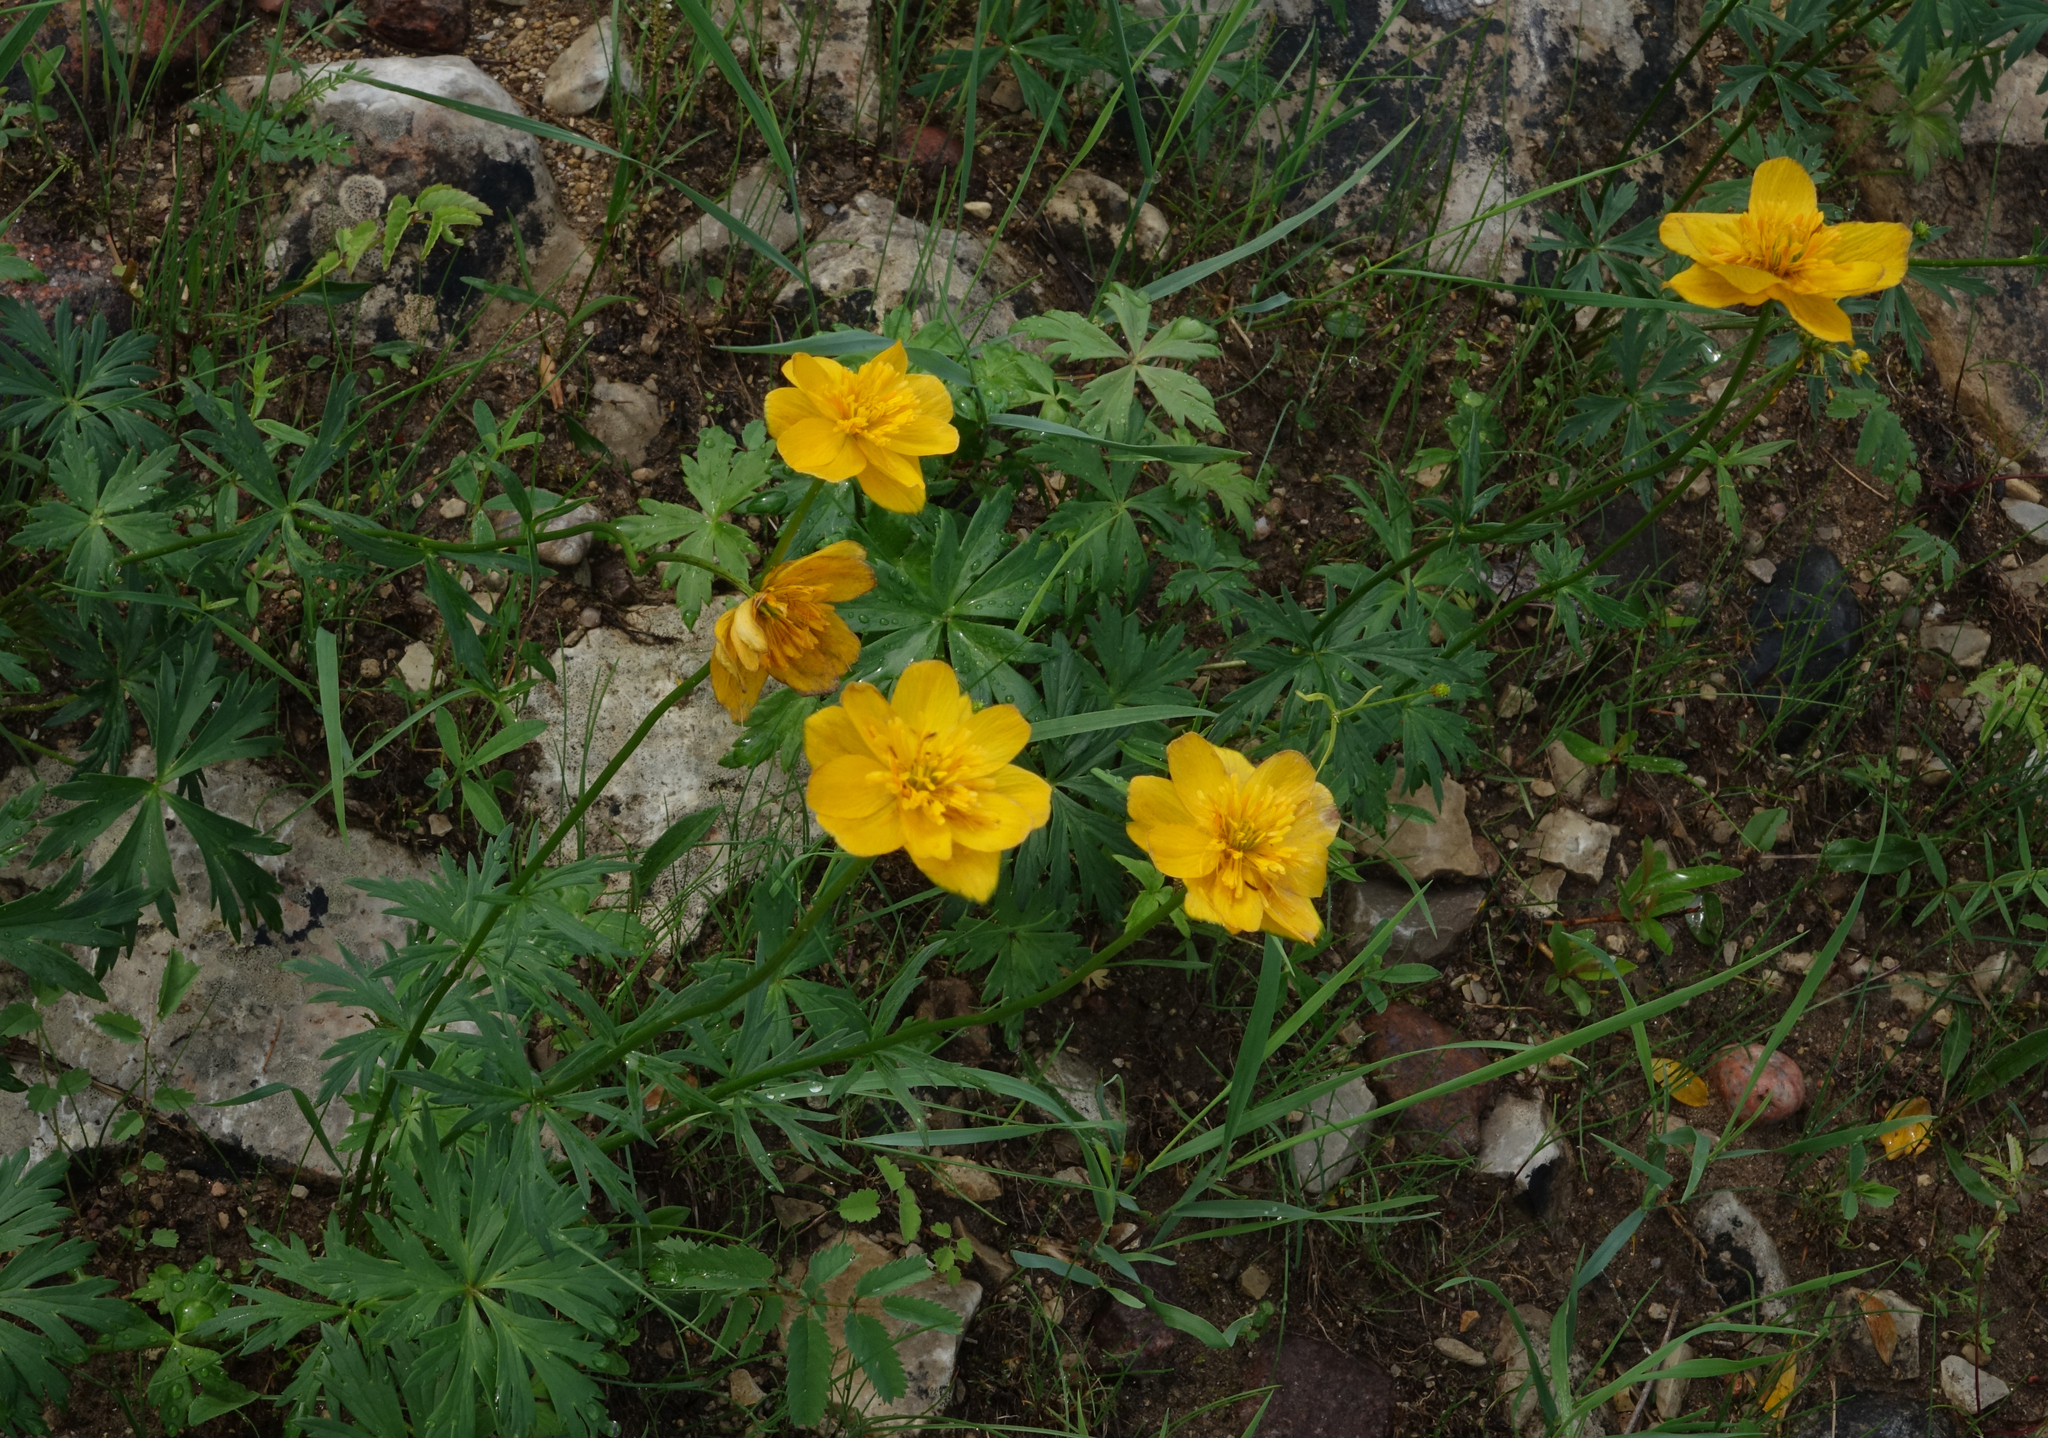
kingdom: Plantae
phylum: Tracheophyta
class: Magnoliopsida
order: Ranunculales
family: Ranunculaceae
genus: Trollius
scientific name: Trollius membranostylis
